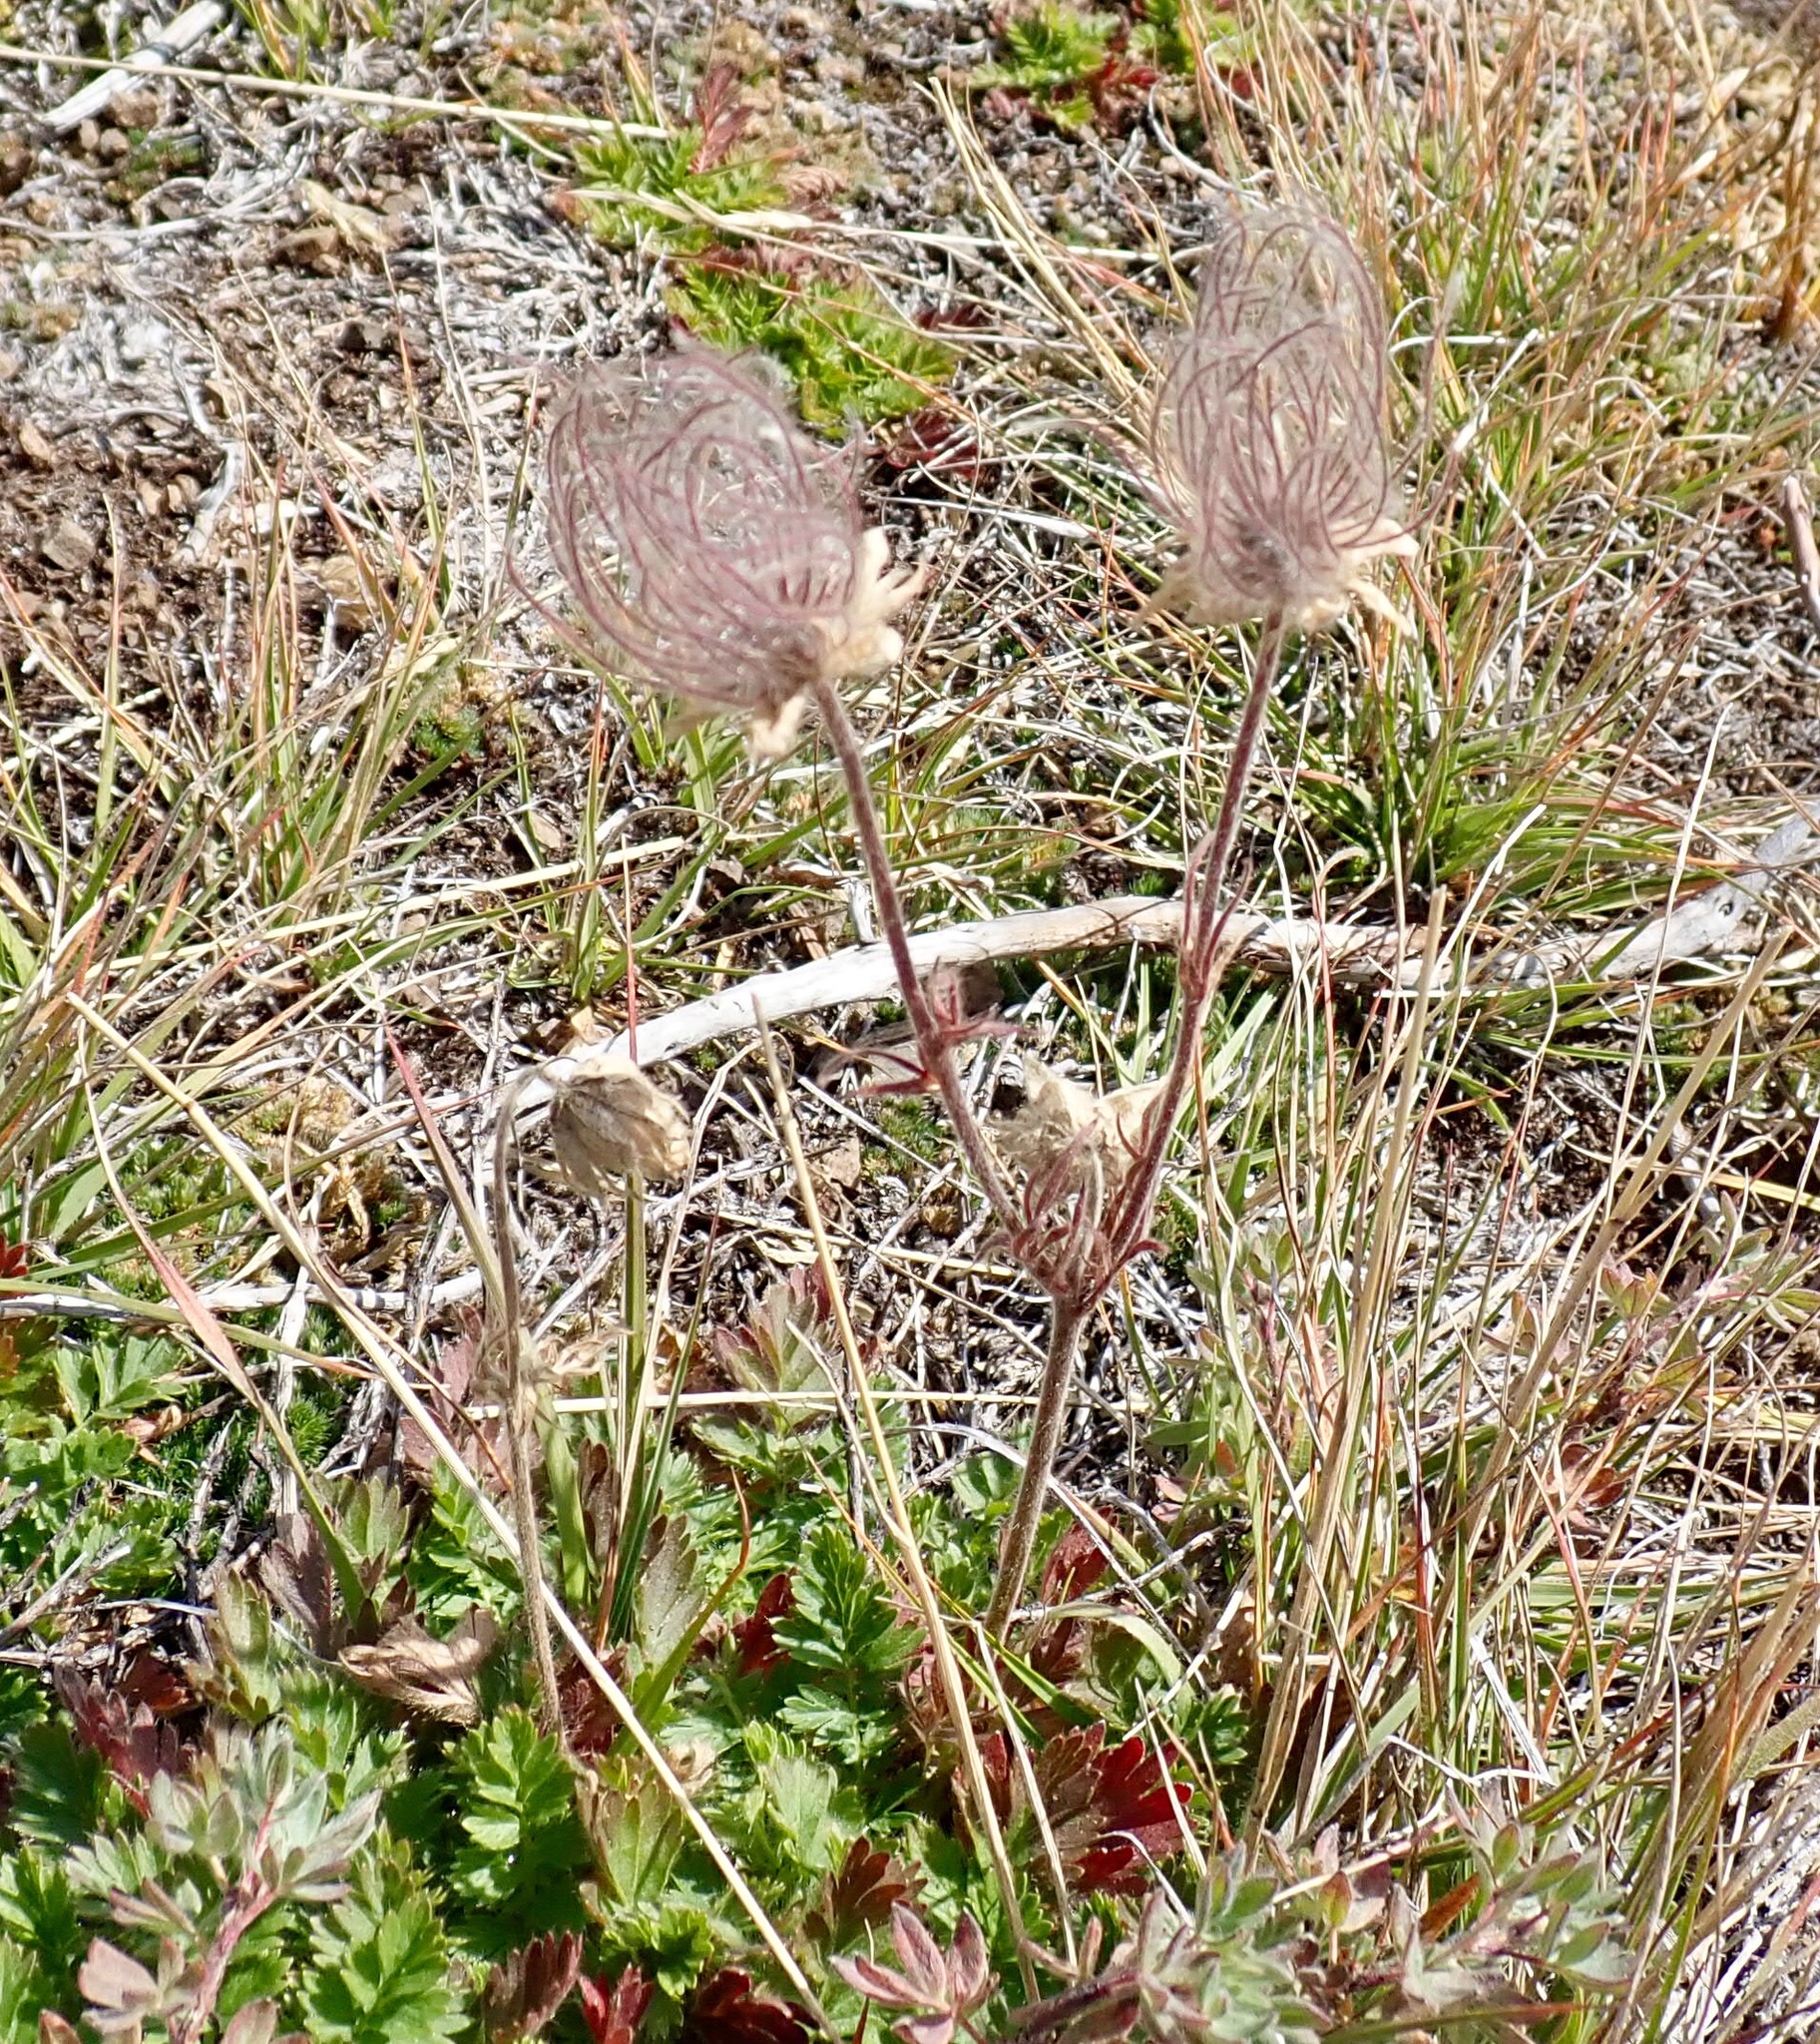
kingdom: Plantae
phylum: Tracheophyta
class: Magnoliopsida
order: Rosales
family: Rosaceae
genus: Geum
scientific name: Geum triflorum
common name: Old man's whiskers
